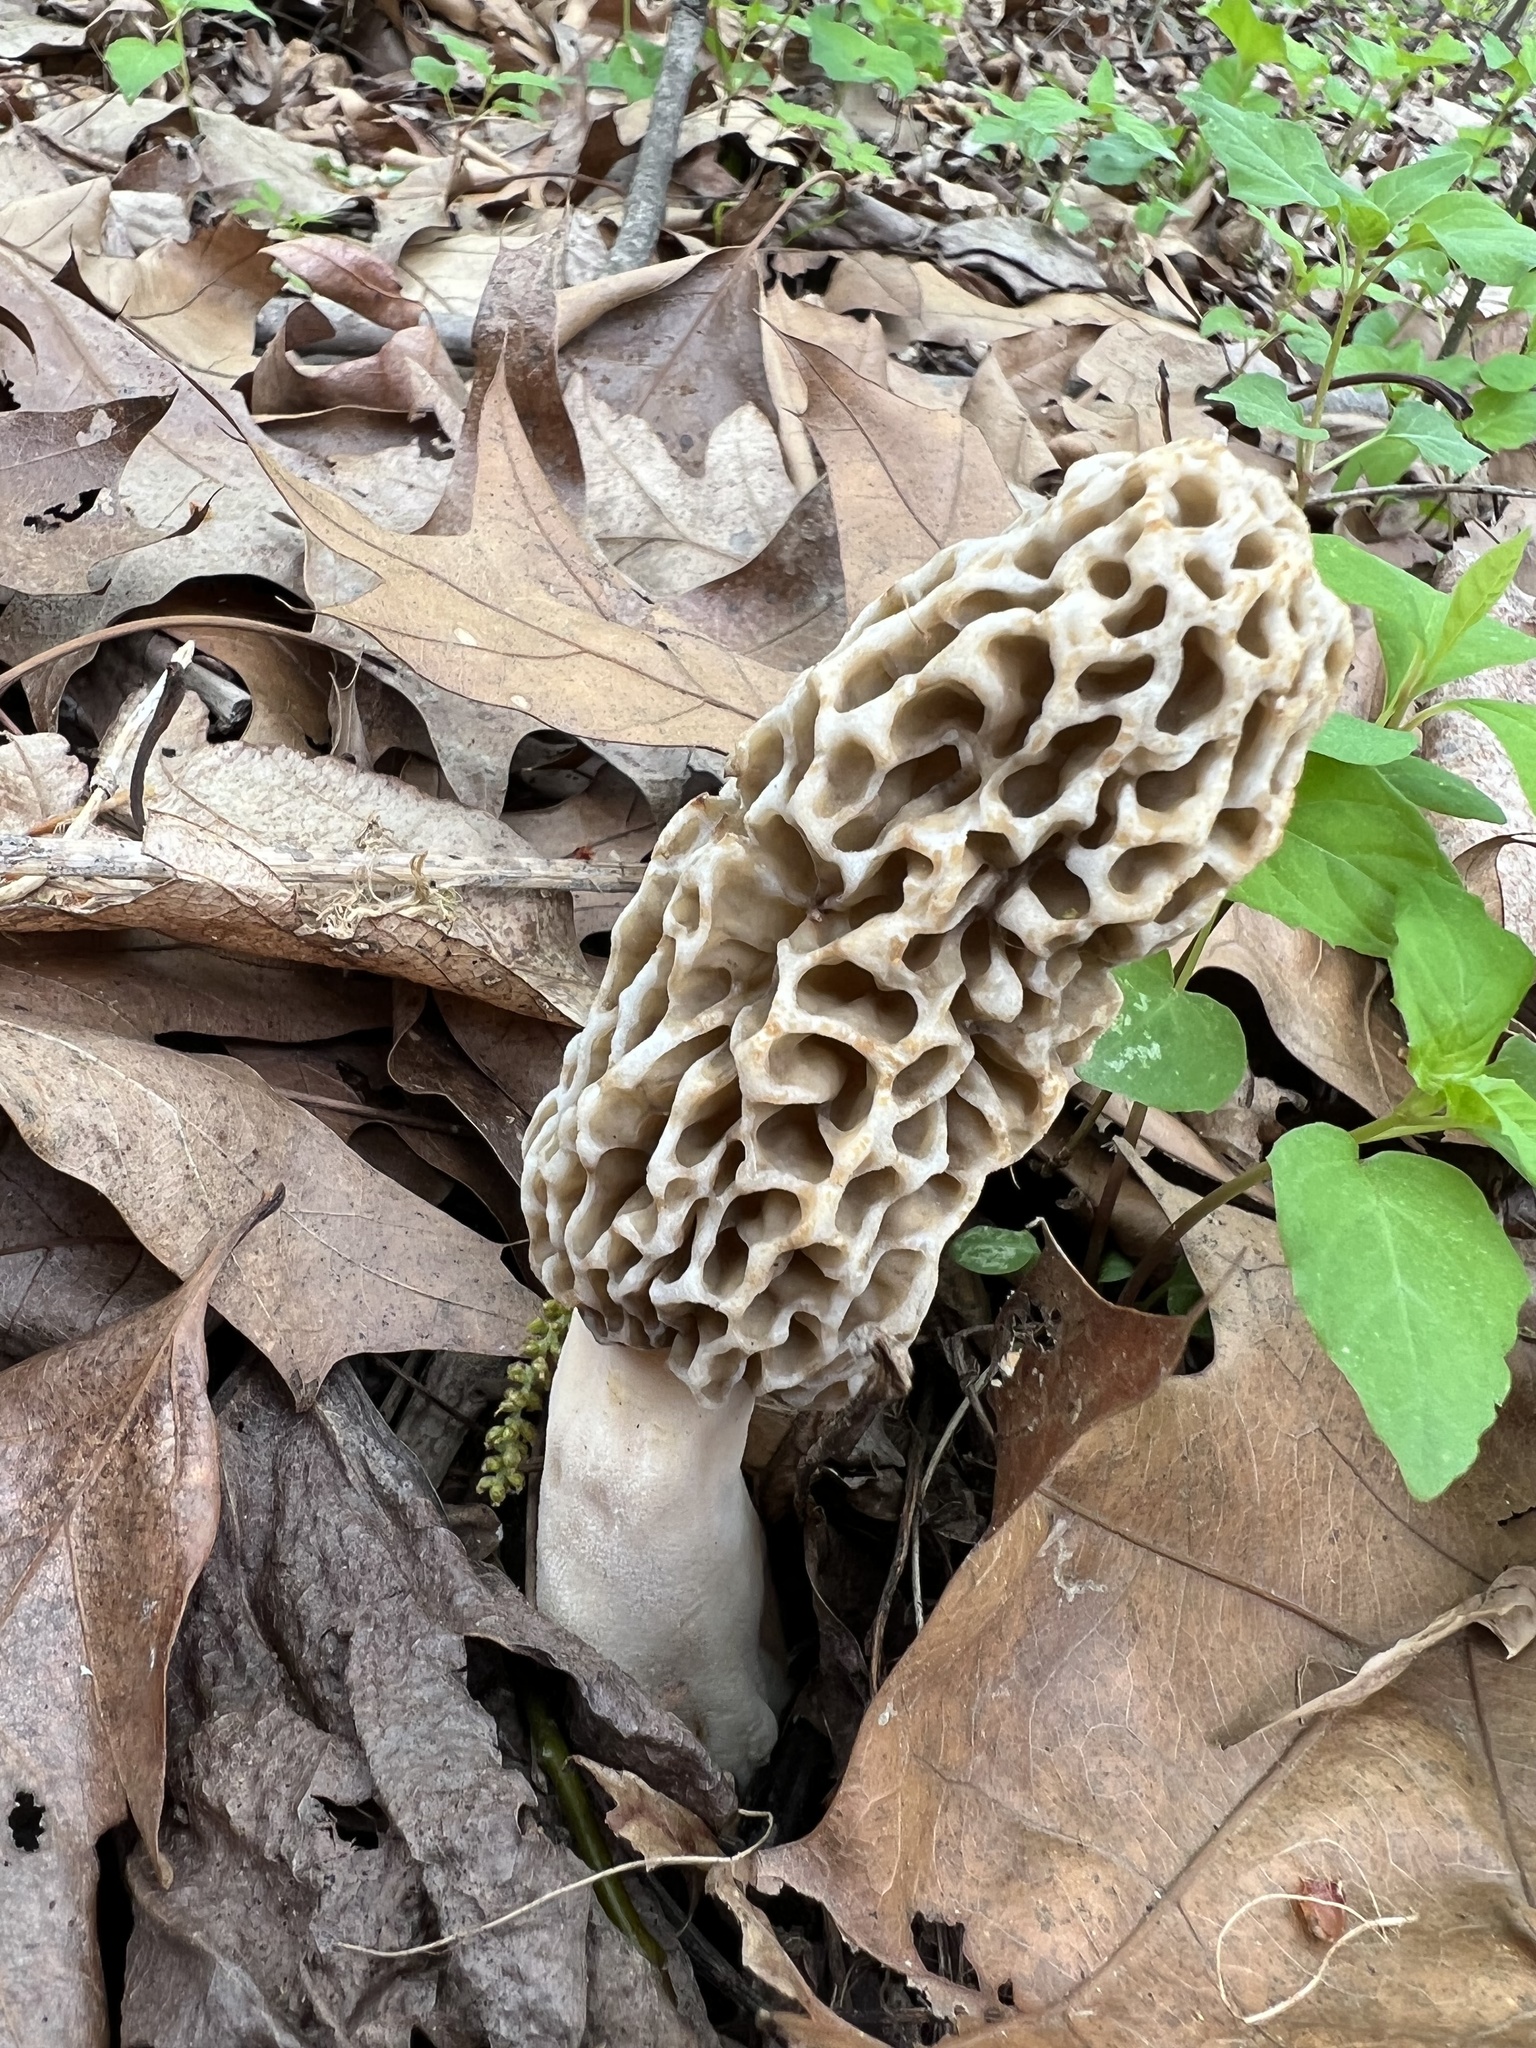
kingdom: Fungi
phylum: Ascomycota
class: Pezizomycetes
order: Pezizales
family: Morchellaceae
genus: Morchella
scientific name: Morchella americana
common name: White morel
